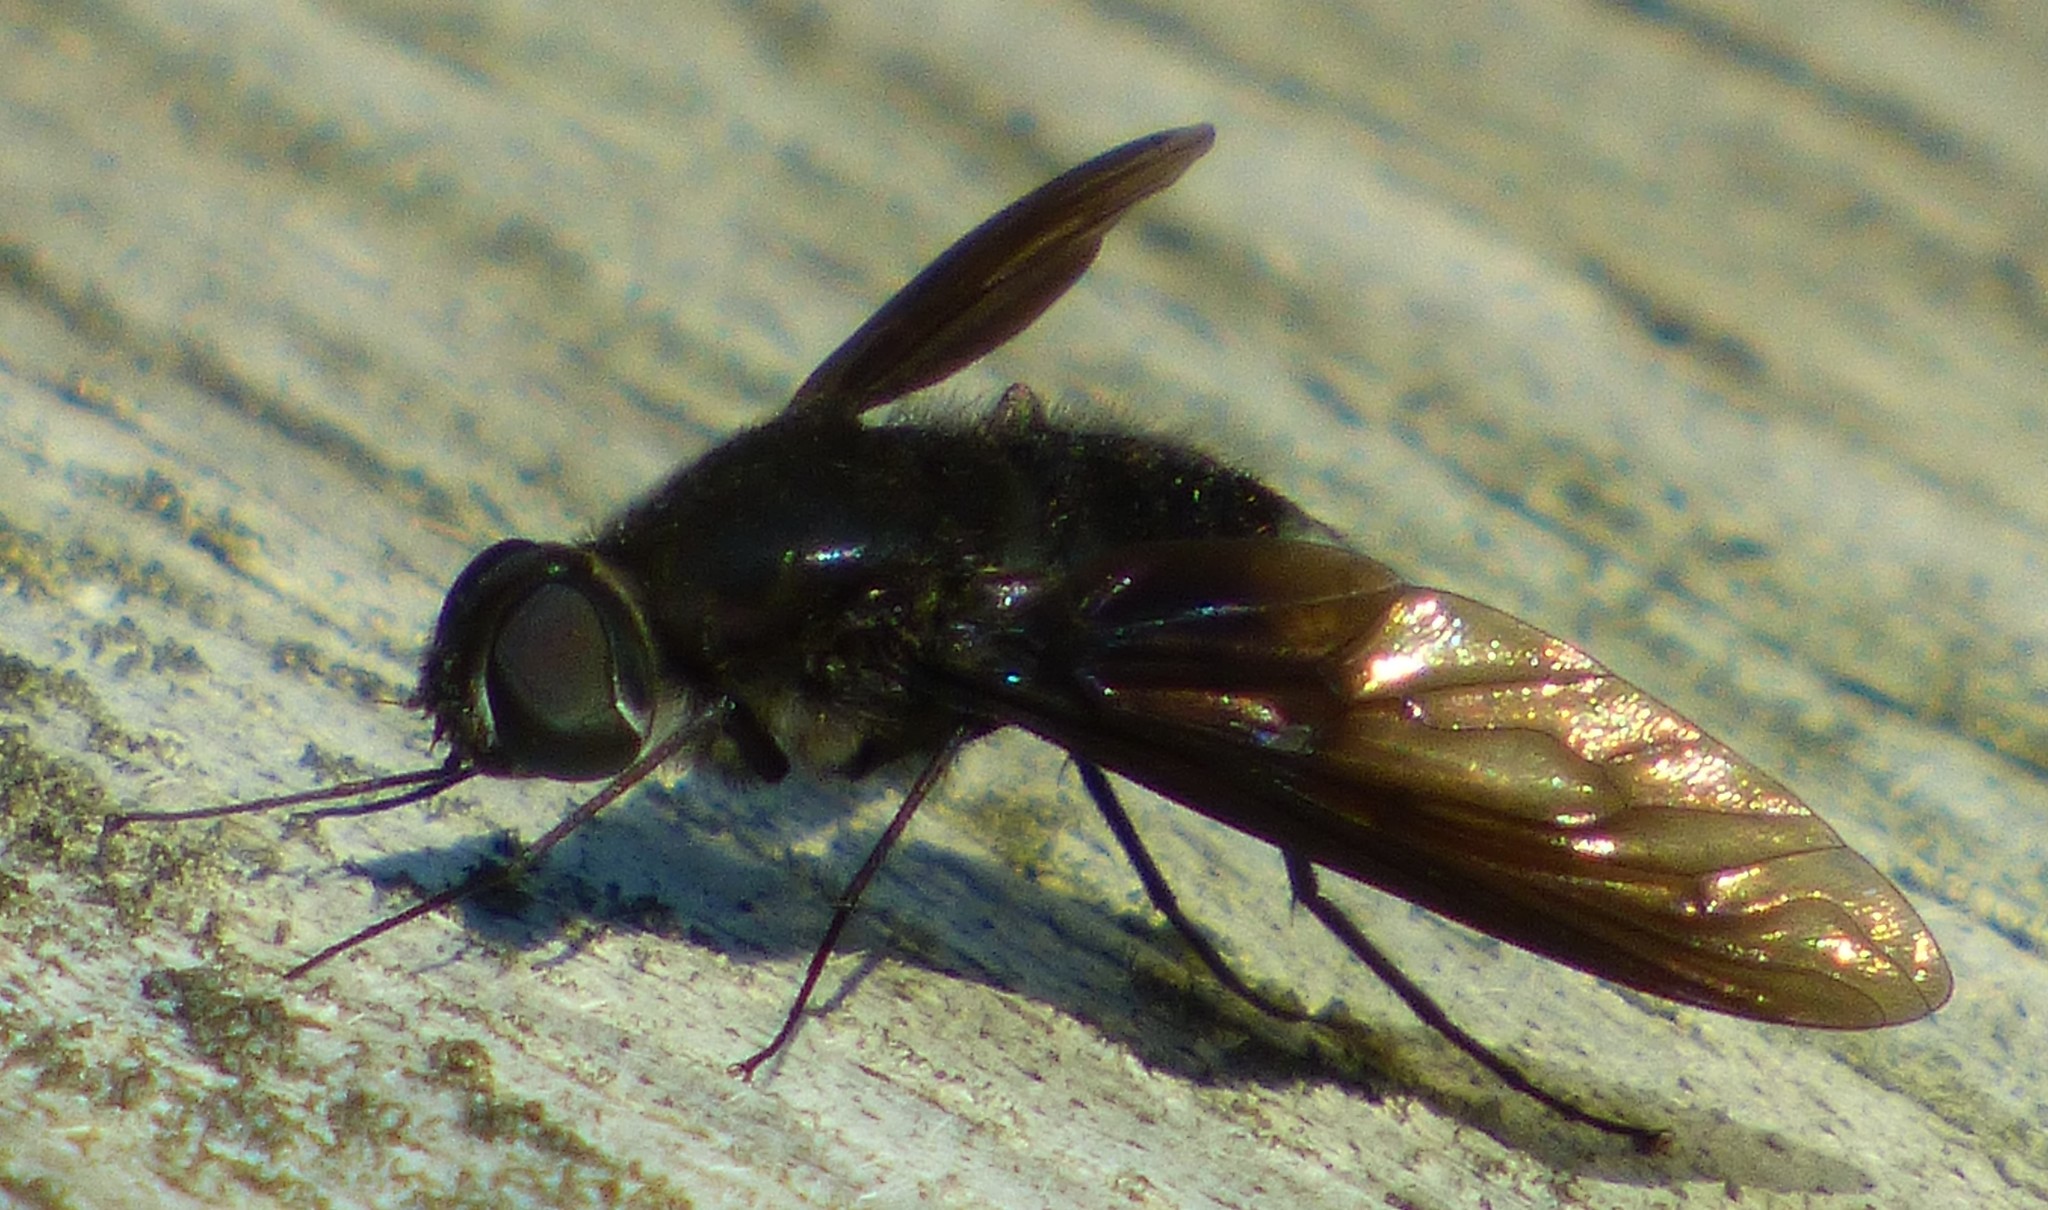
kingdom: Animalia
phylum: Arthropoda
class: Insecta
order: Diptera
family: Bombyliidae
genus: Brachyanax
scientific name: Brachyanax aterrimus
